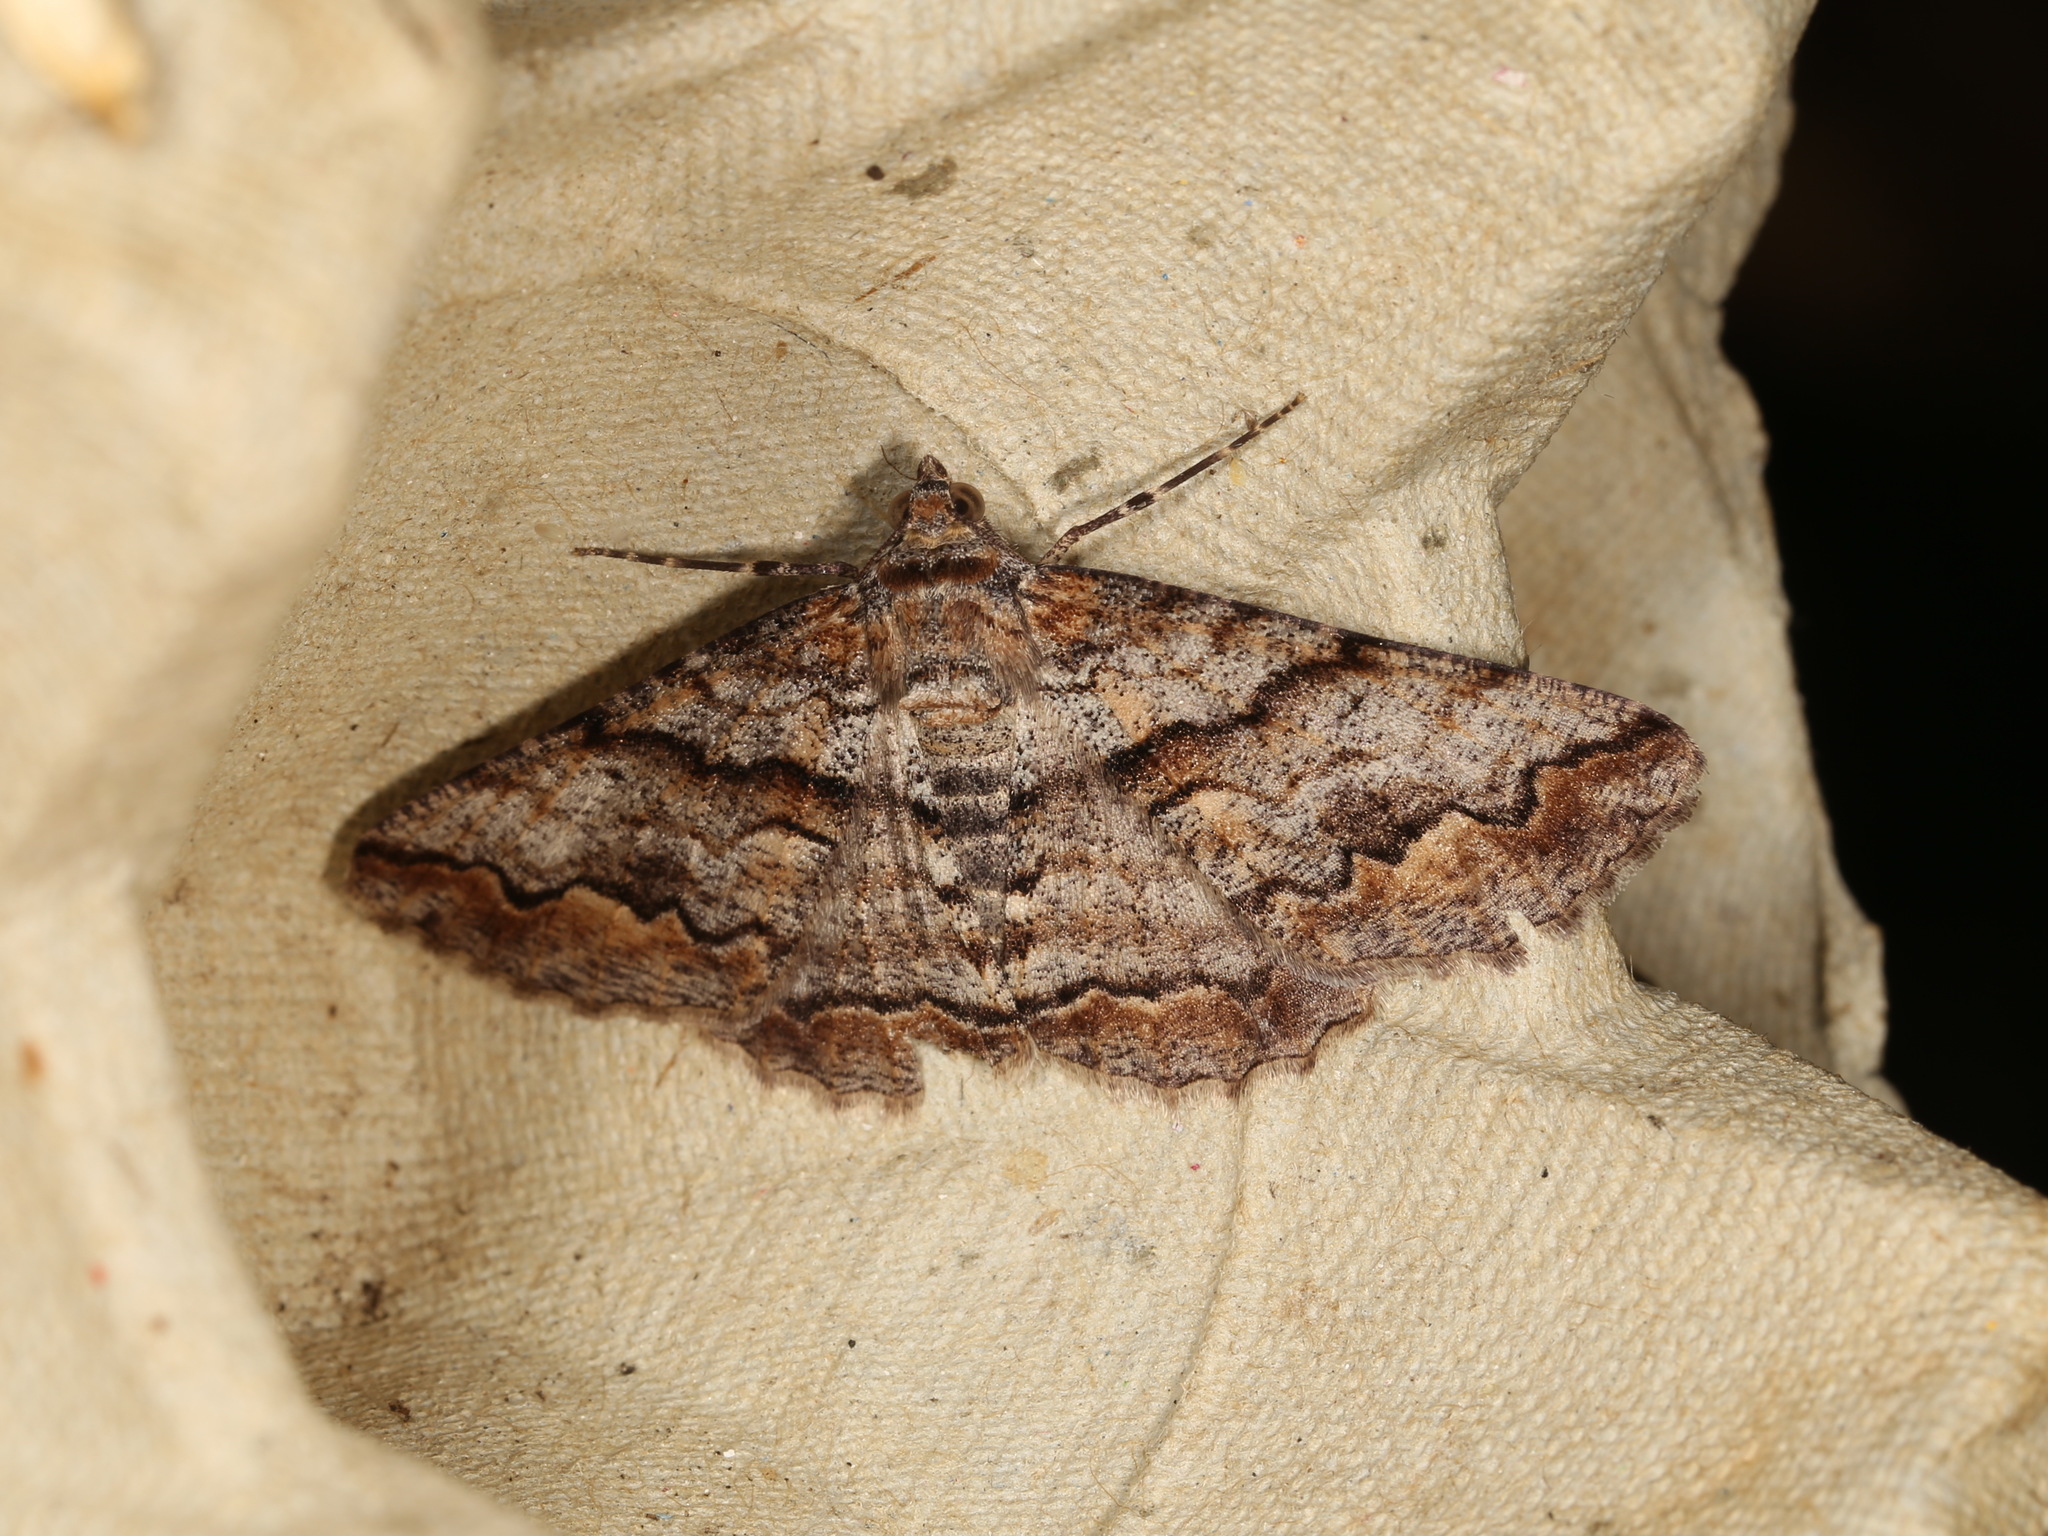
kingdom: Animalia
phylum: Arthropoda
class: Insecta
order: Lepidoptera
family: Geometridae
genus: Gastrinodes
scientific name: Gastrinodes bitaeniaria
